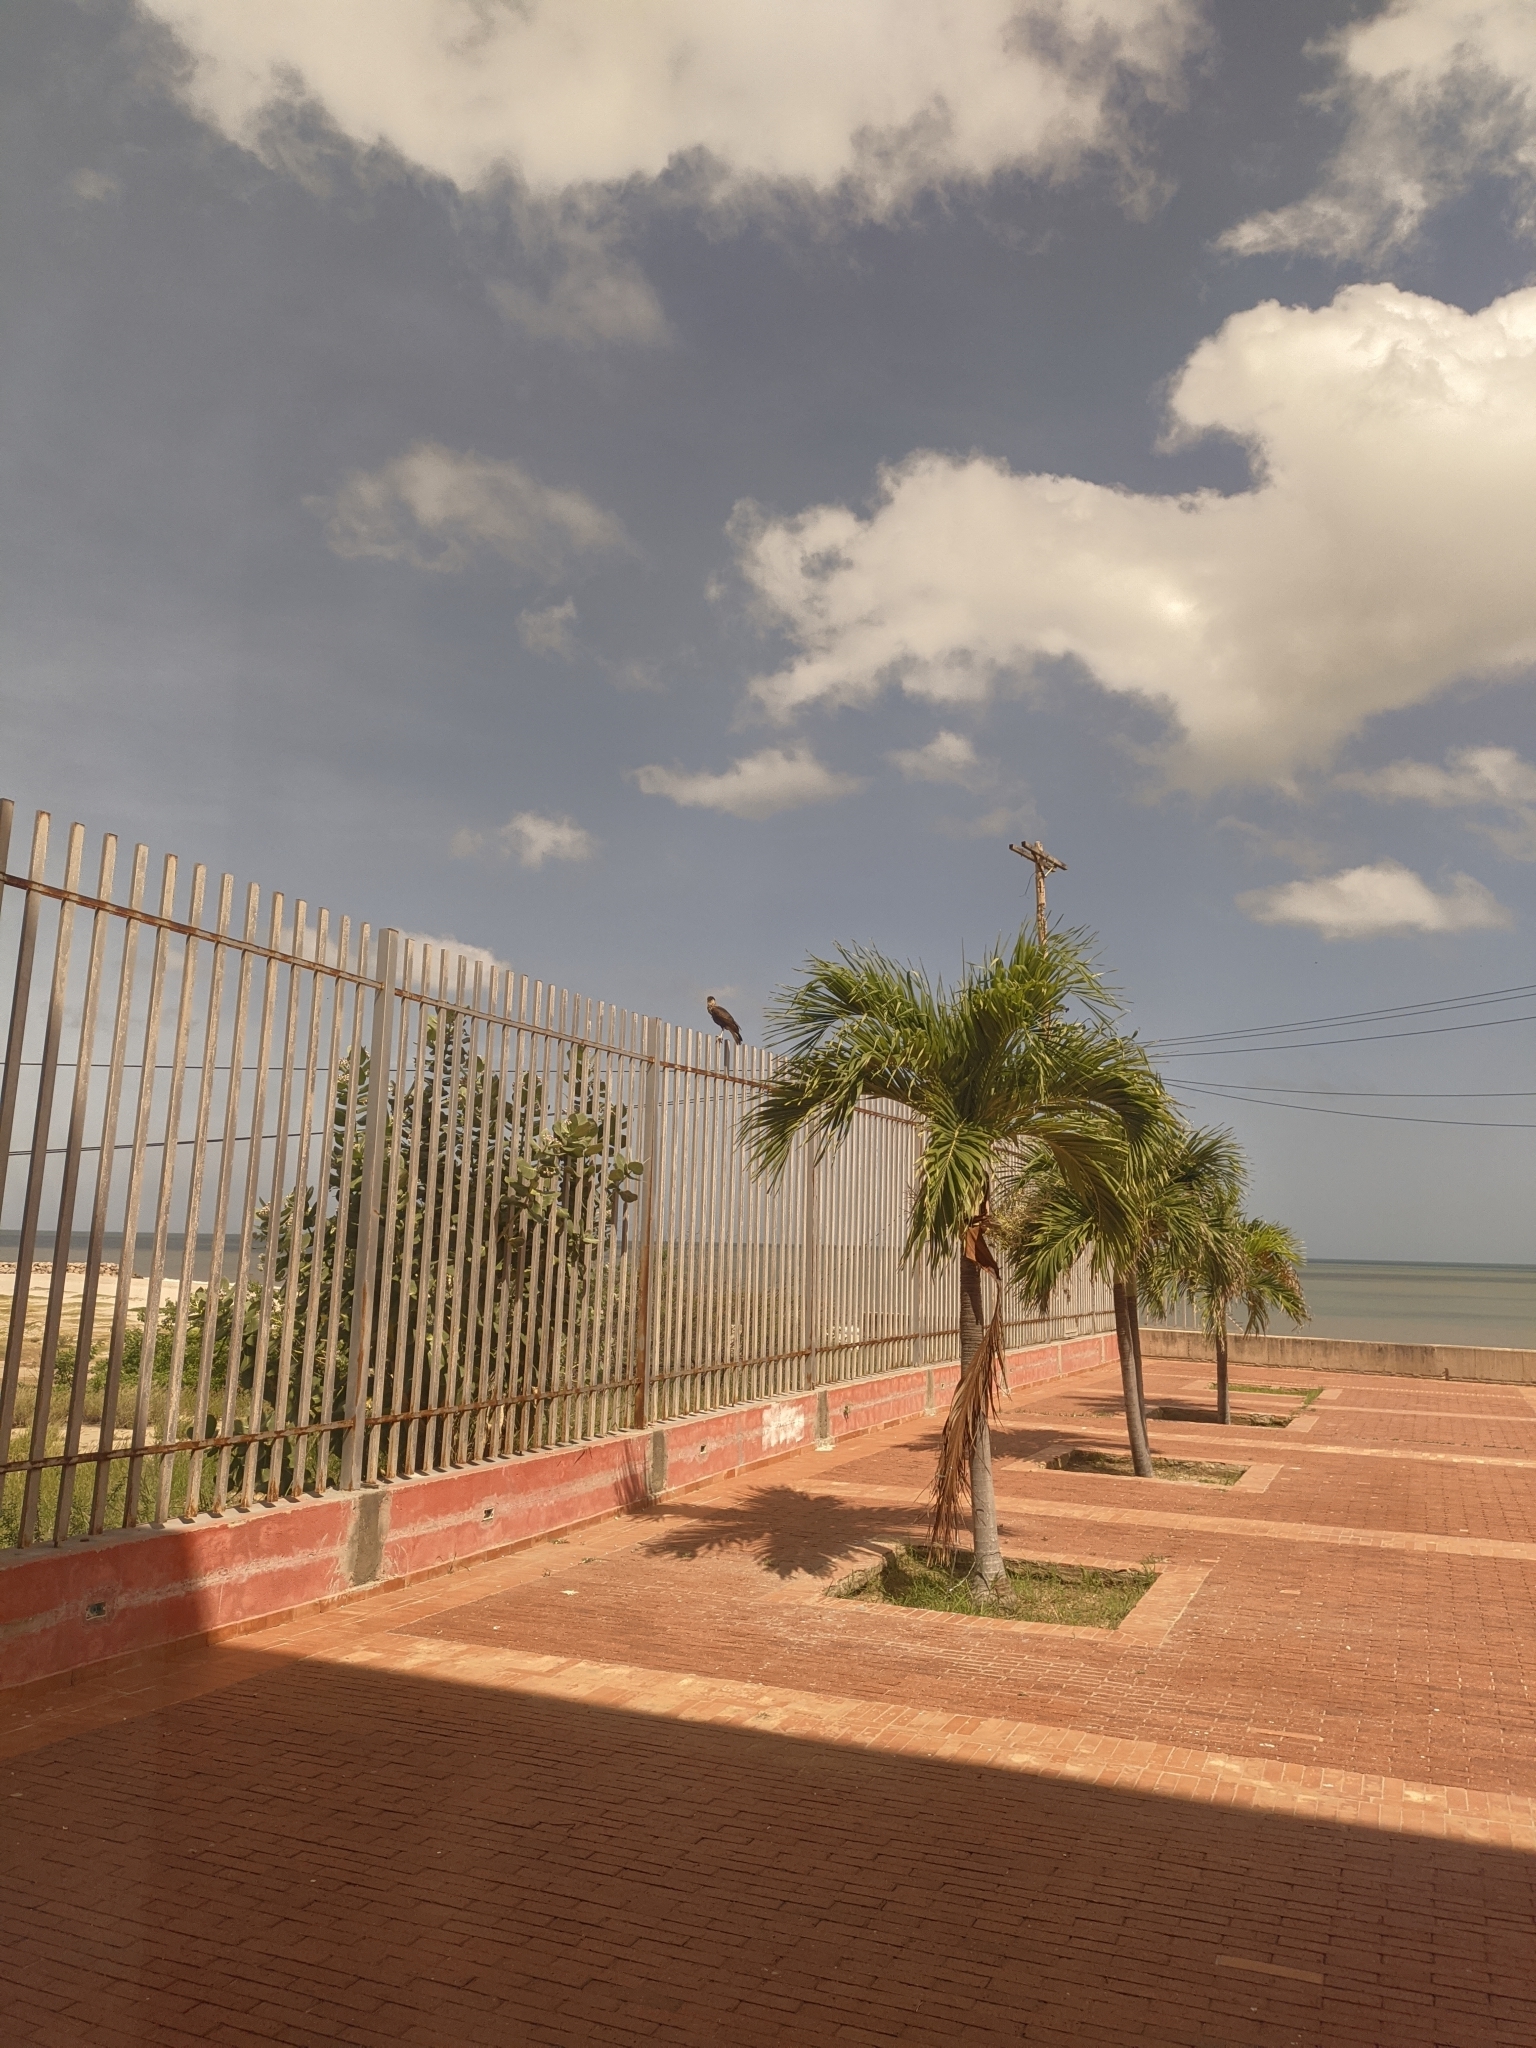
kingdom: Animalia
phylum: Chordata
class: Aves
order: Falconiformes
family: Falconidae
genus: Caracara
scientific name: Caracara plancus
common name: Southern caracara
